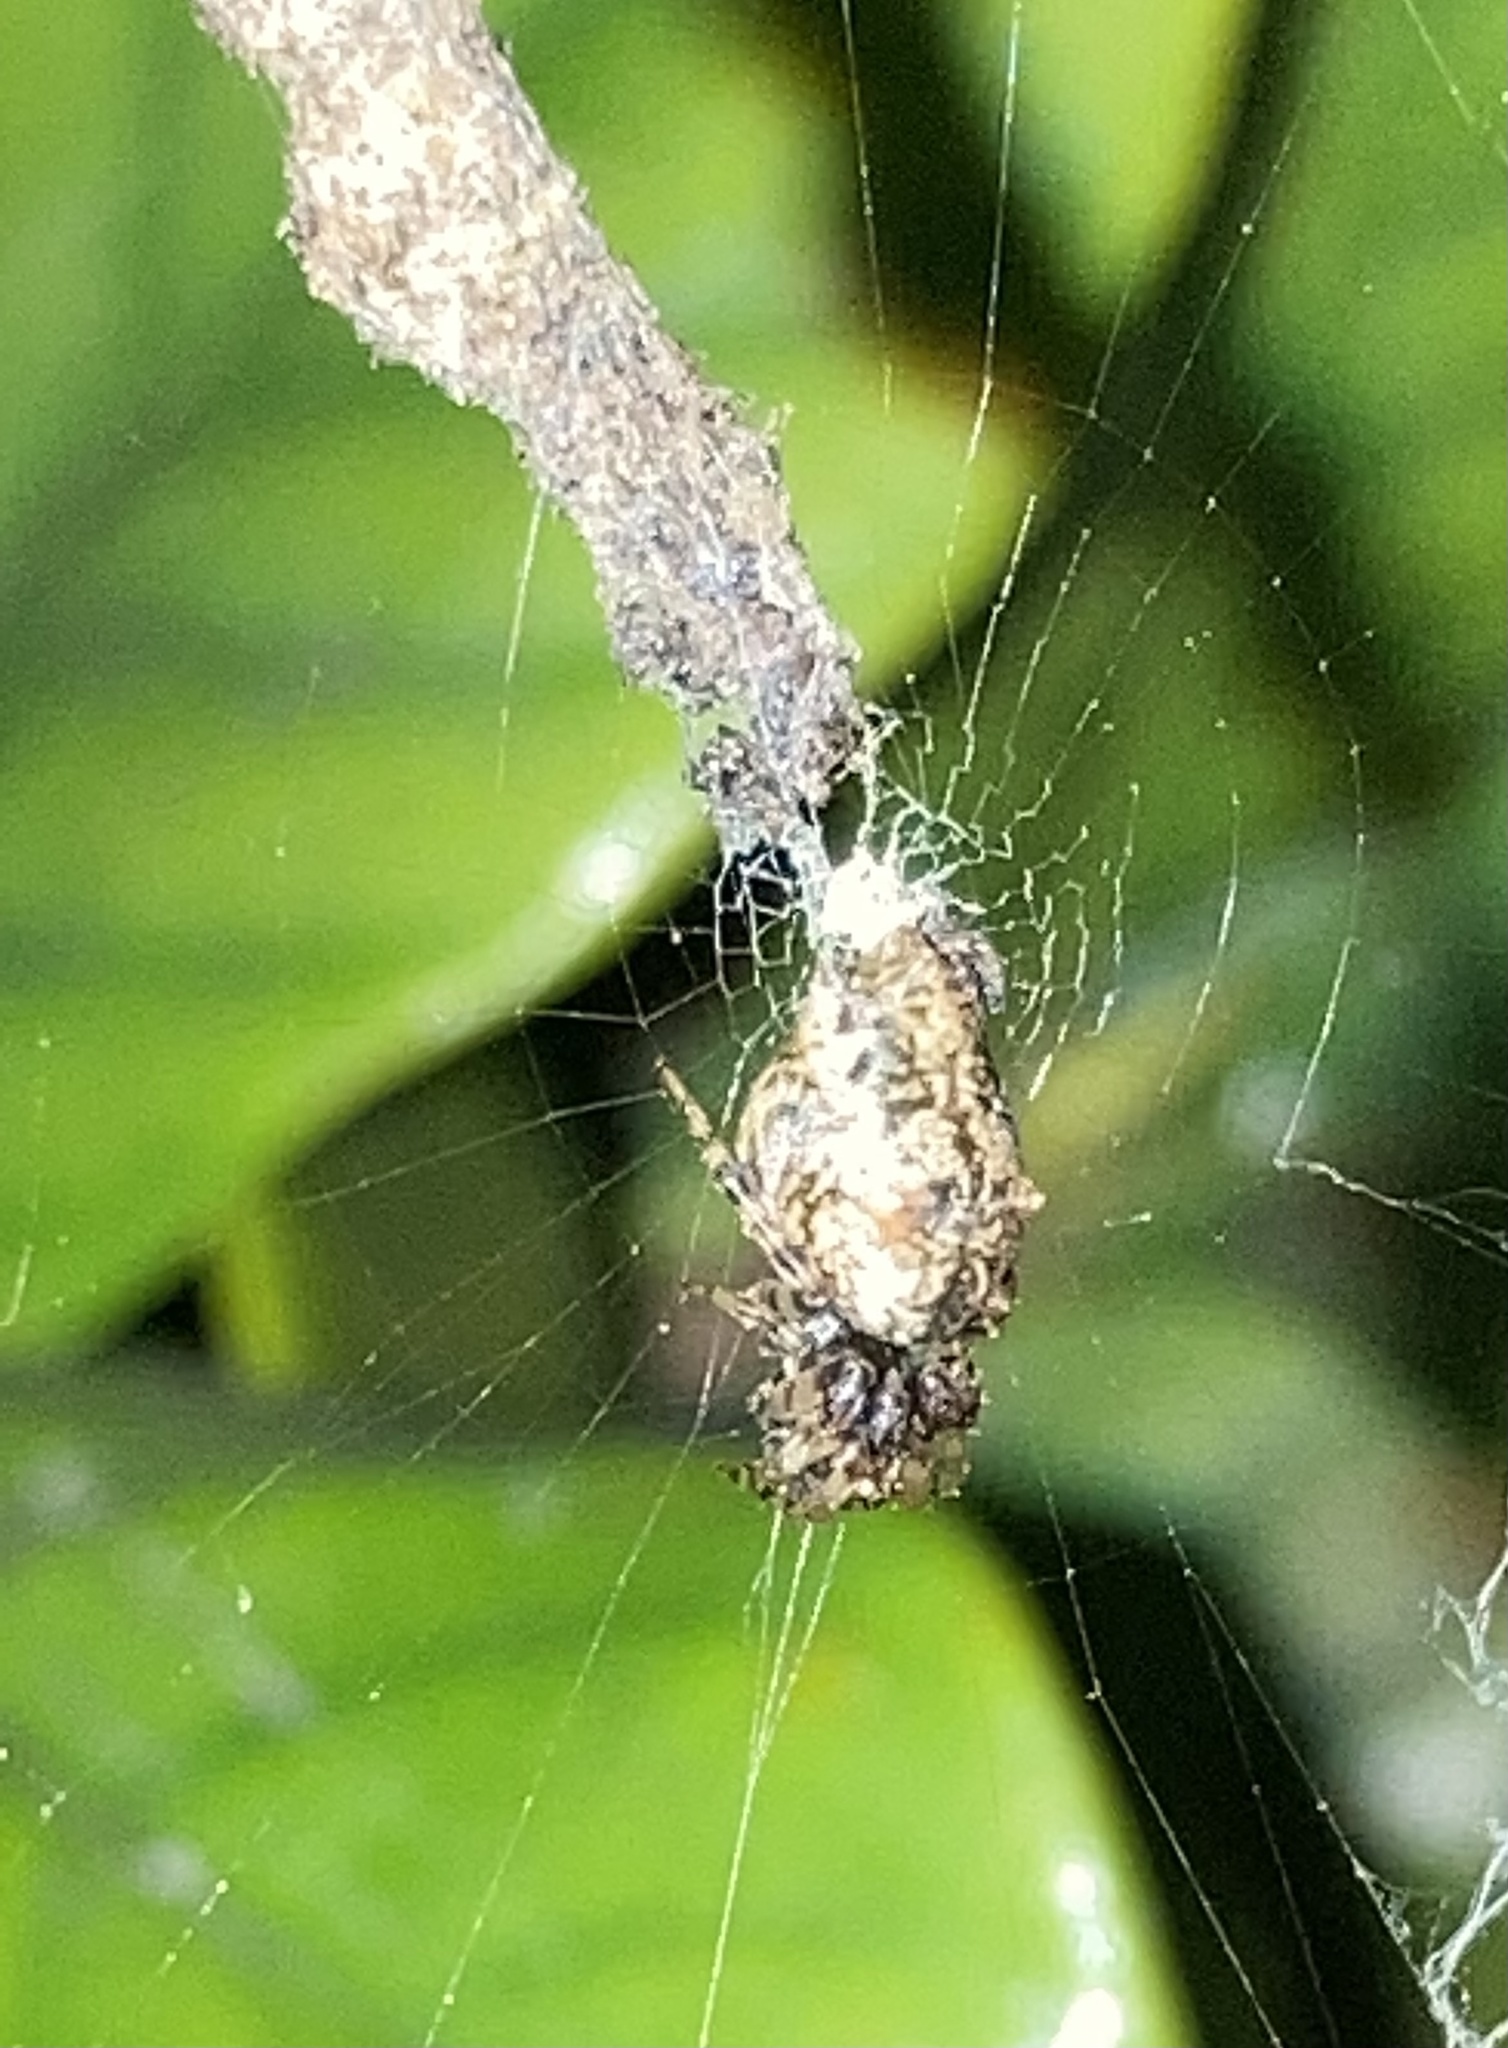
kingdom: Animalia
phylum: Arthropoda
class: Arachnida
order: Araneae
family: Araneidae
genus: Cyclosa
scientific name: Cyclosa walckenaeri
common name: Orb weavers
